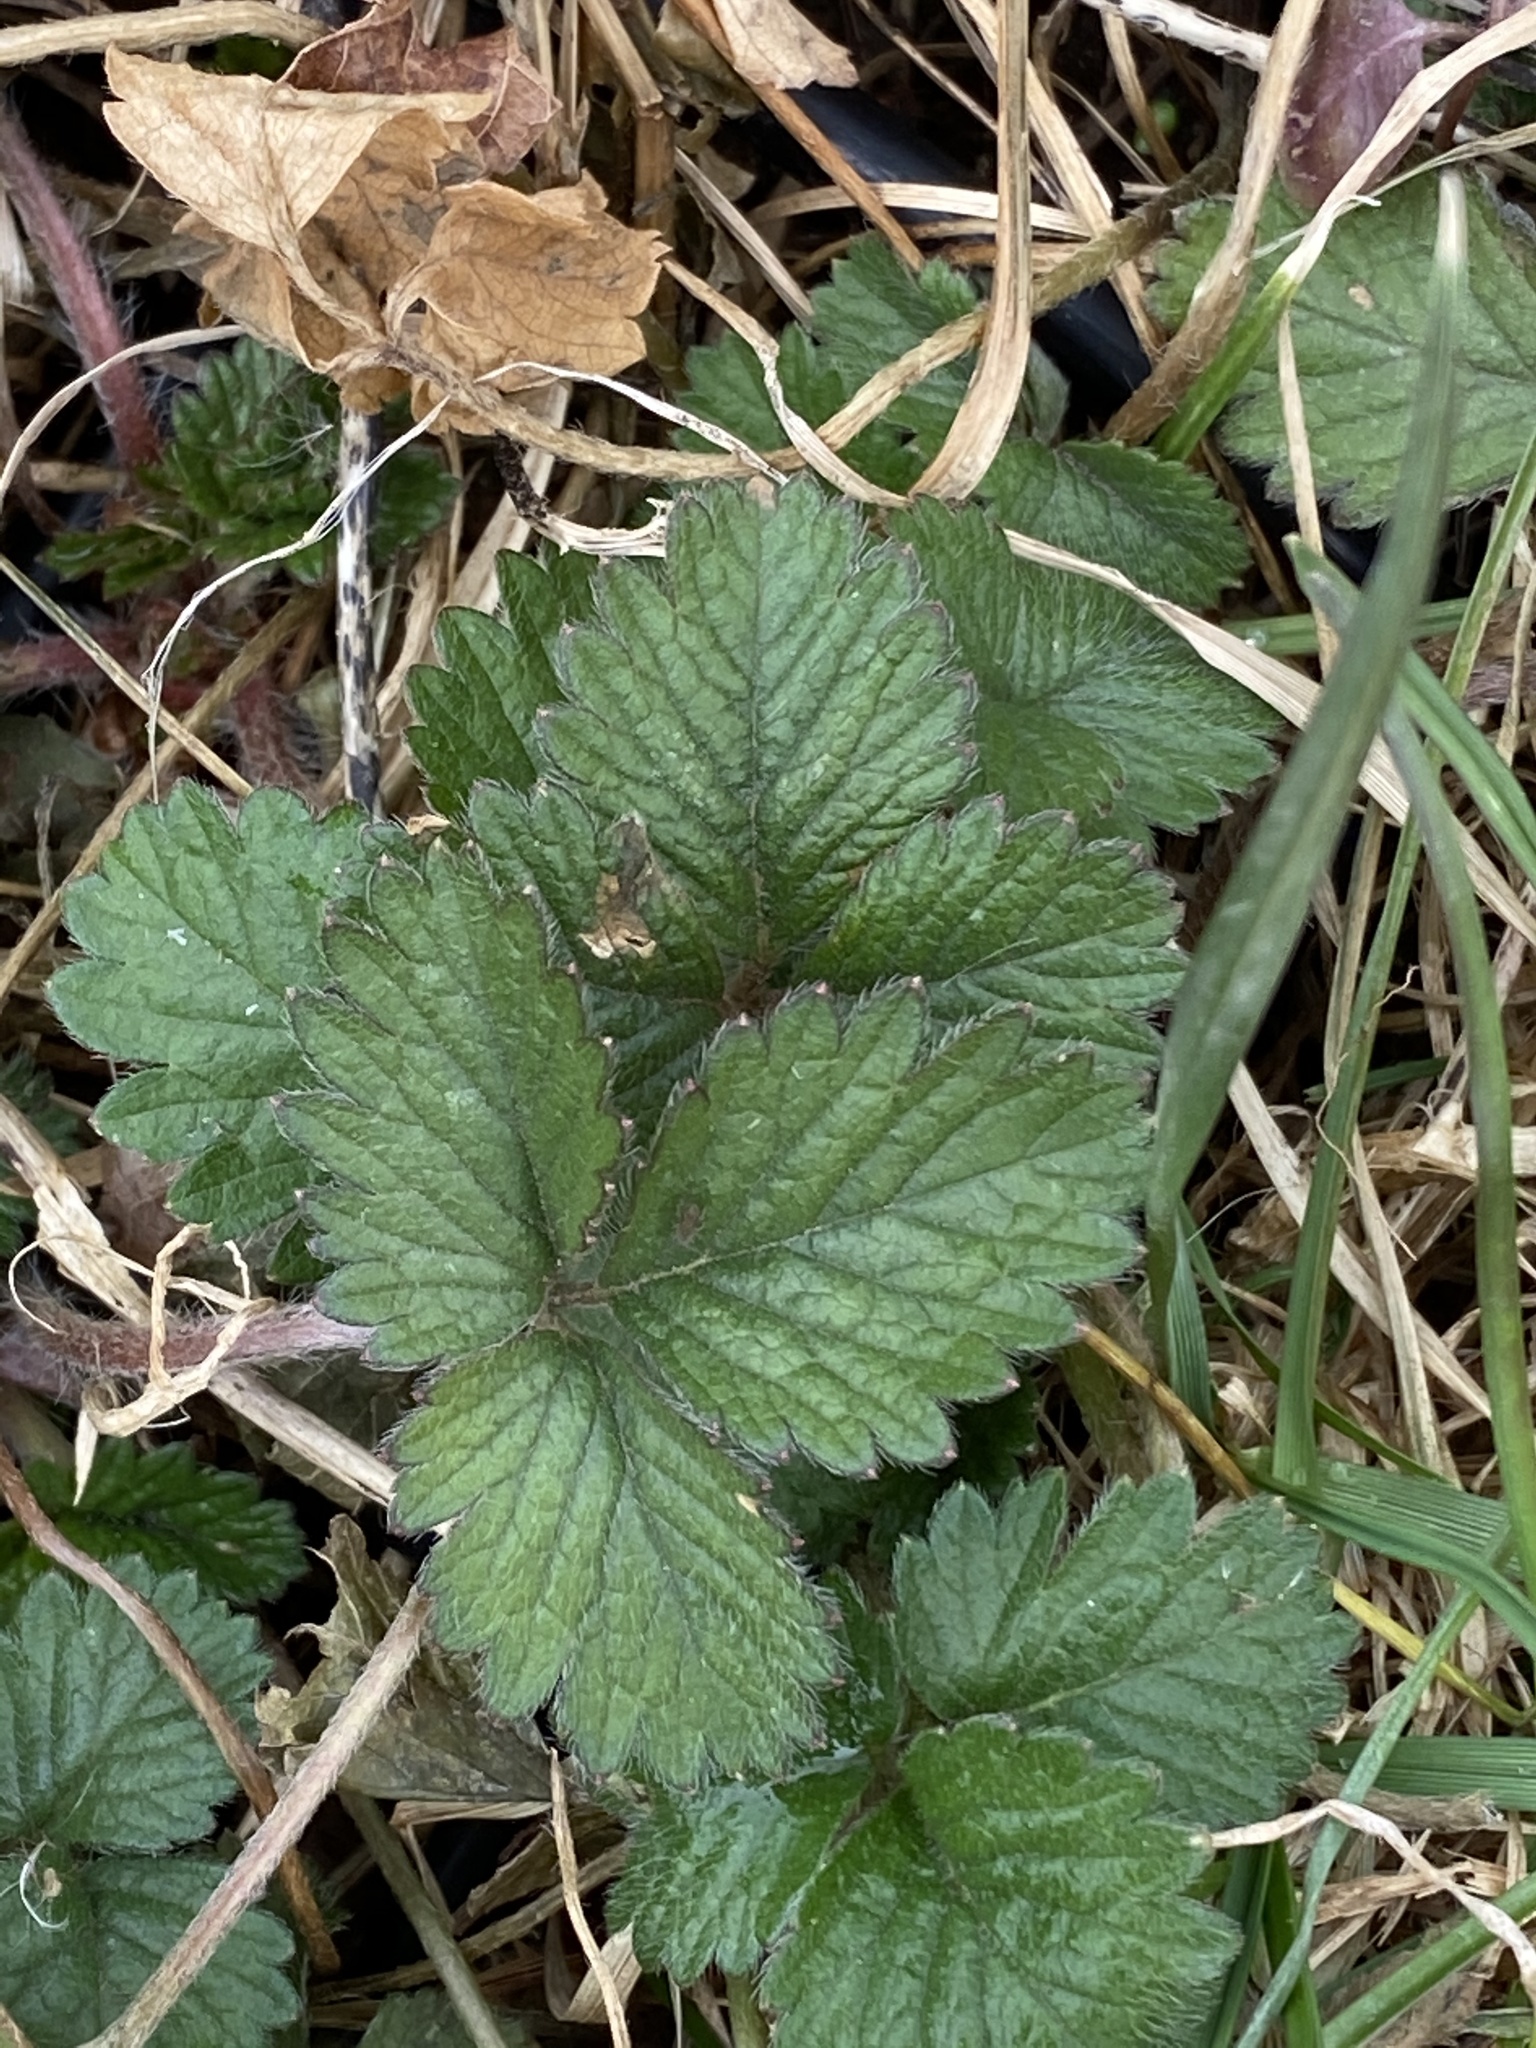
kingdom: Plantae
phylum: Tracheophyta
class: Magnoliopsida
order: Rosales
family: Rosaceae
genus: Potentilla
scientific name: Potentilla indica
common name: Yellow-flowered strawberry
